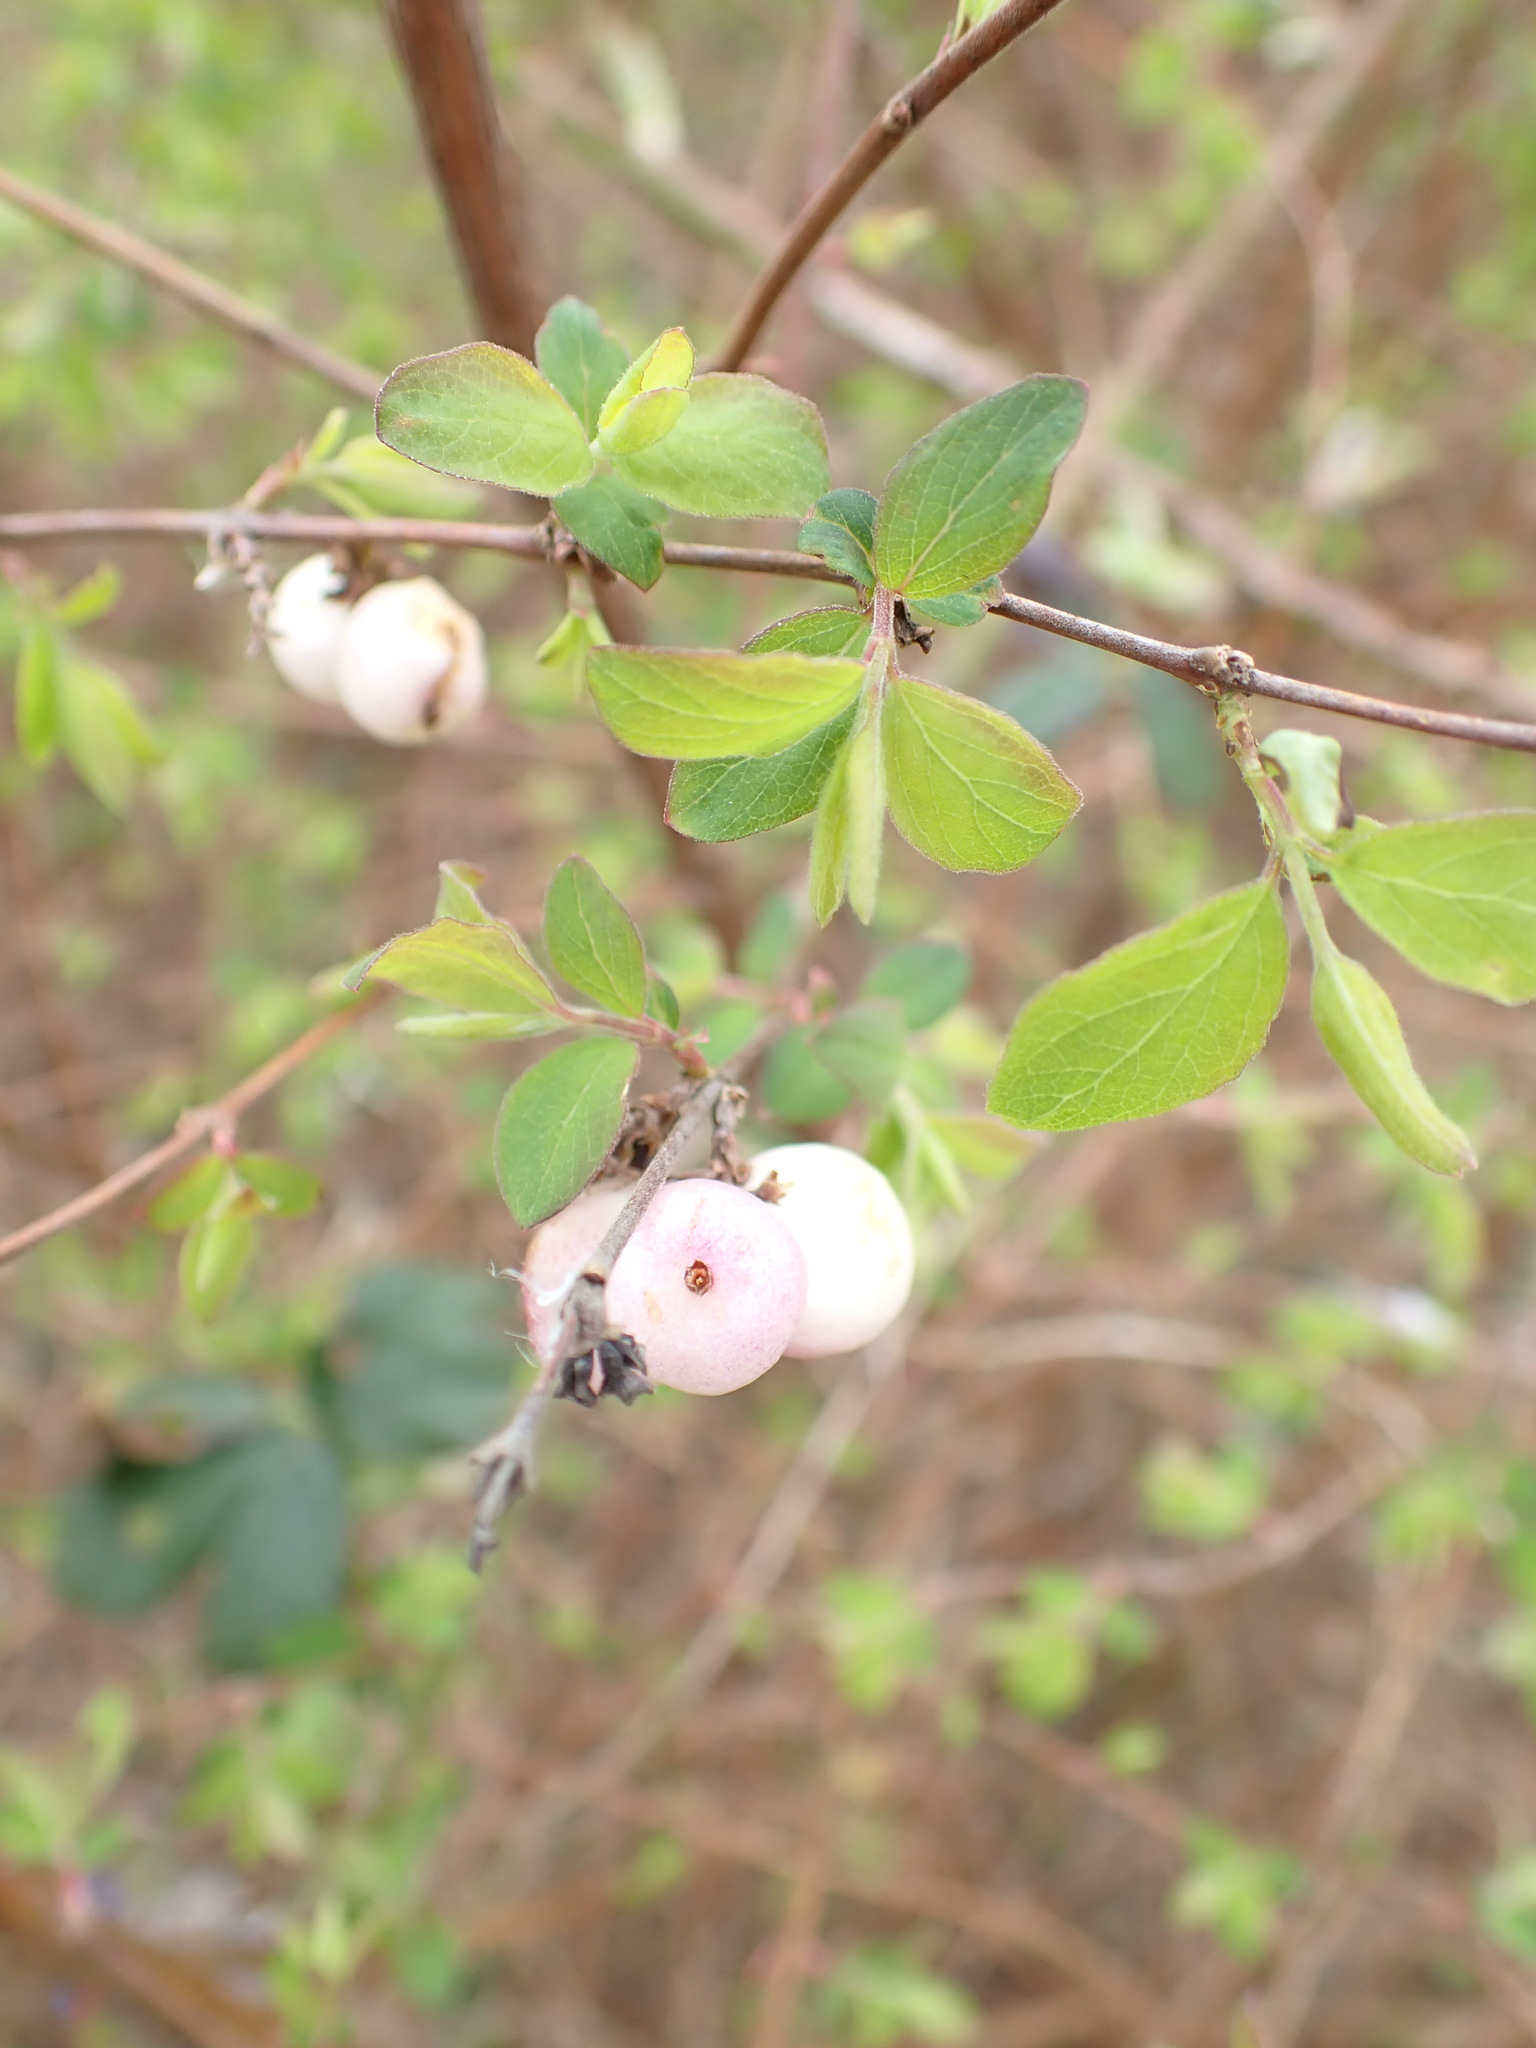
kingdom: Plantae
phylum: Tracheophyta
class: Magnoliopsida
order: Dipsacales
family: Caprifoliaceae
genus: Symphoricarpos
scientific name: Symphoricarpos chenaultii
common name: Hybrid coralberry
